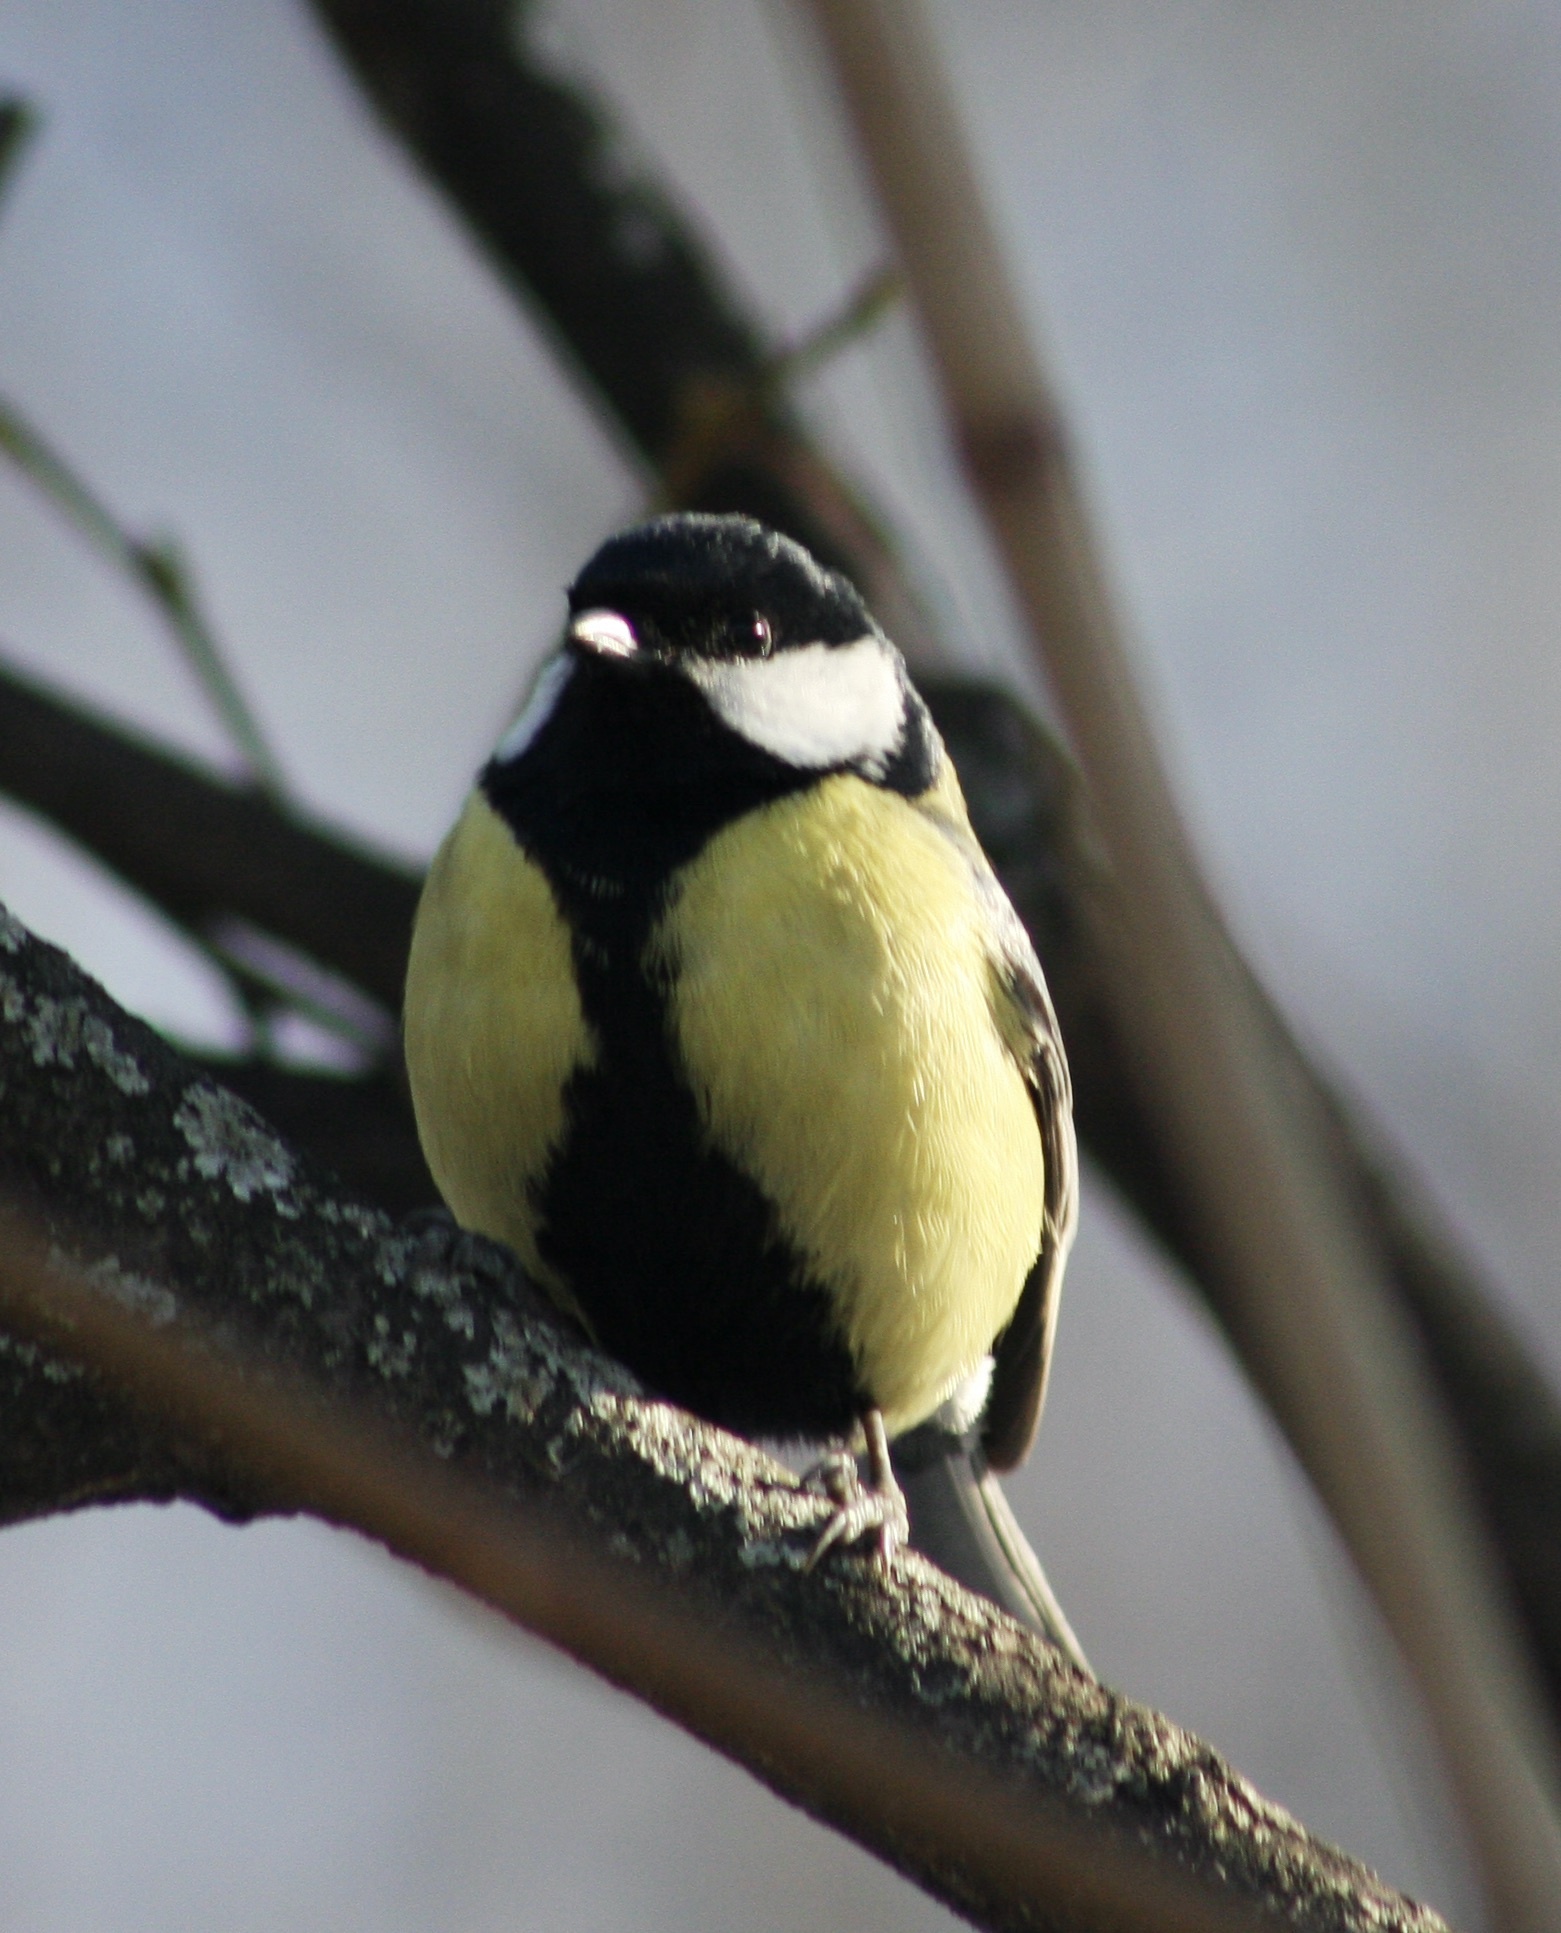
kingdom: Animalia
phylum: Chordata
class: Aves
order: Passeriformes
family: Paridae
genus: Parus
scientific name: Parus major
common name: Great tit
